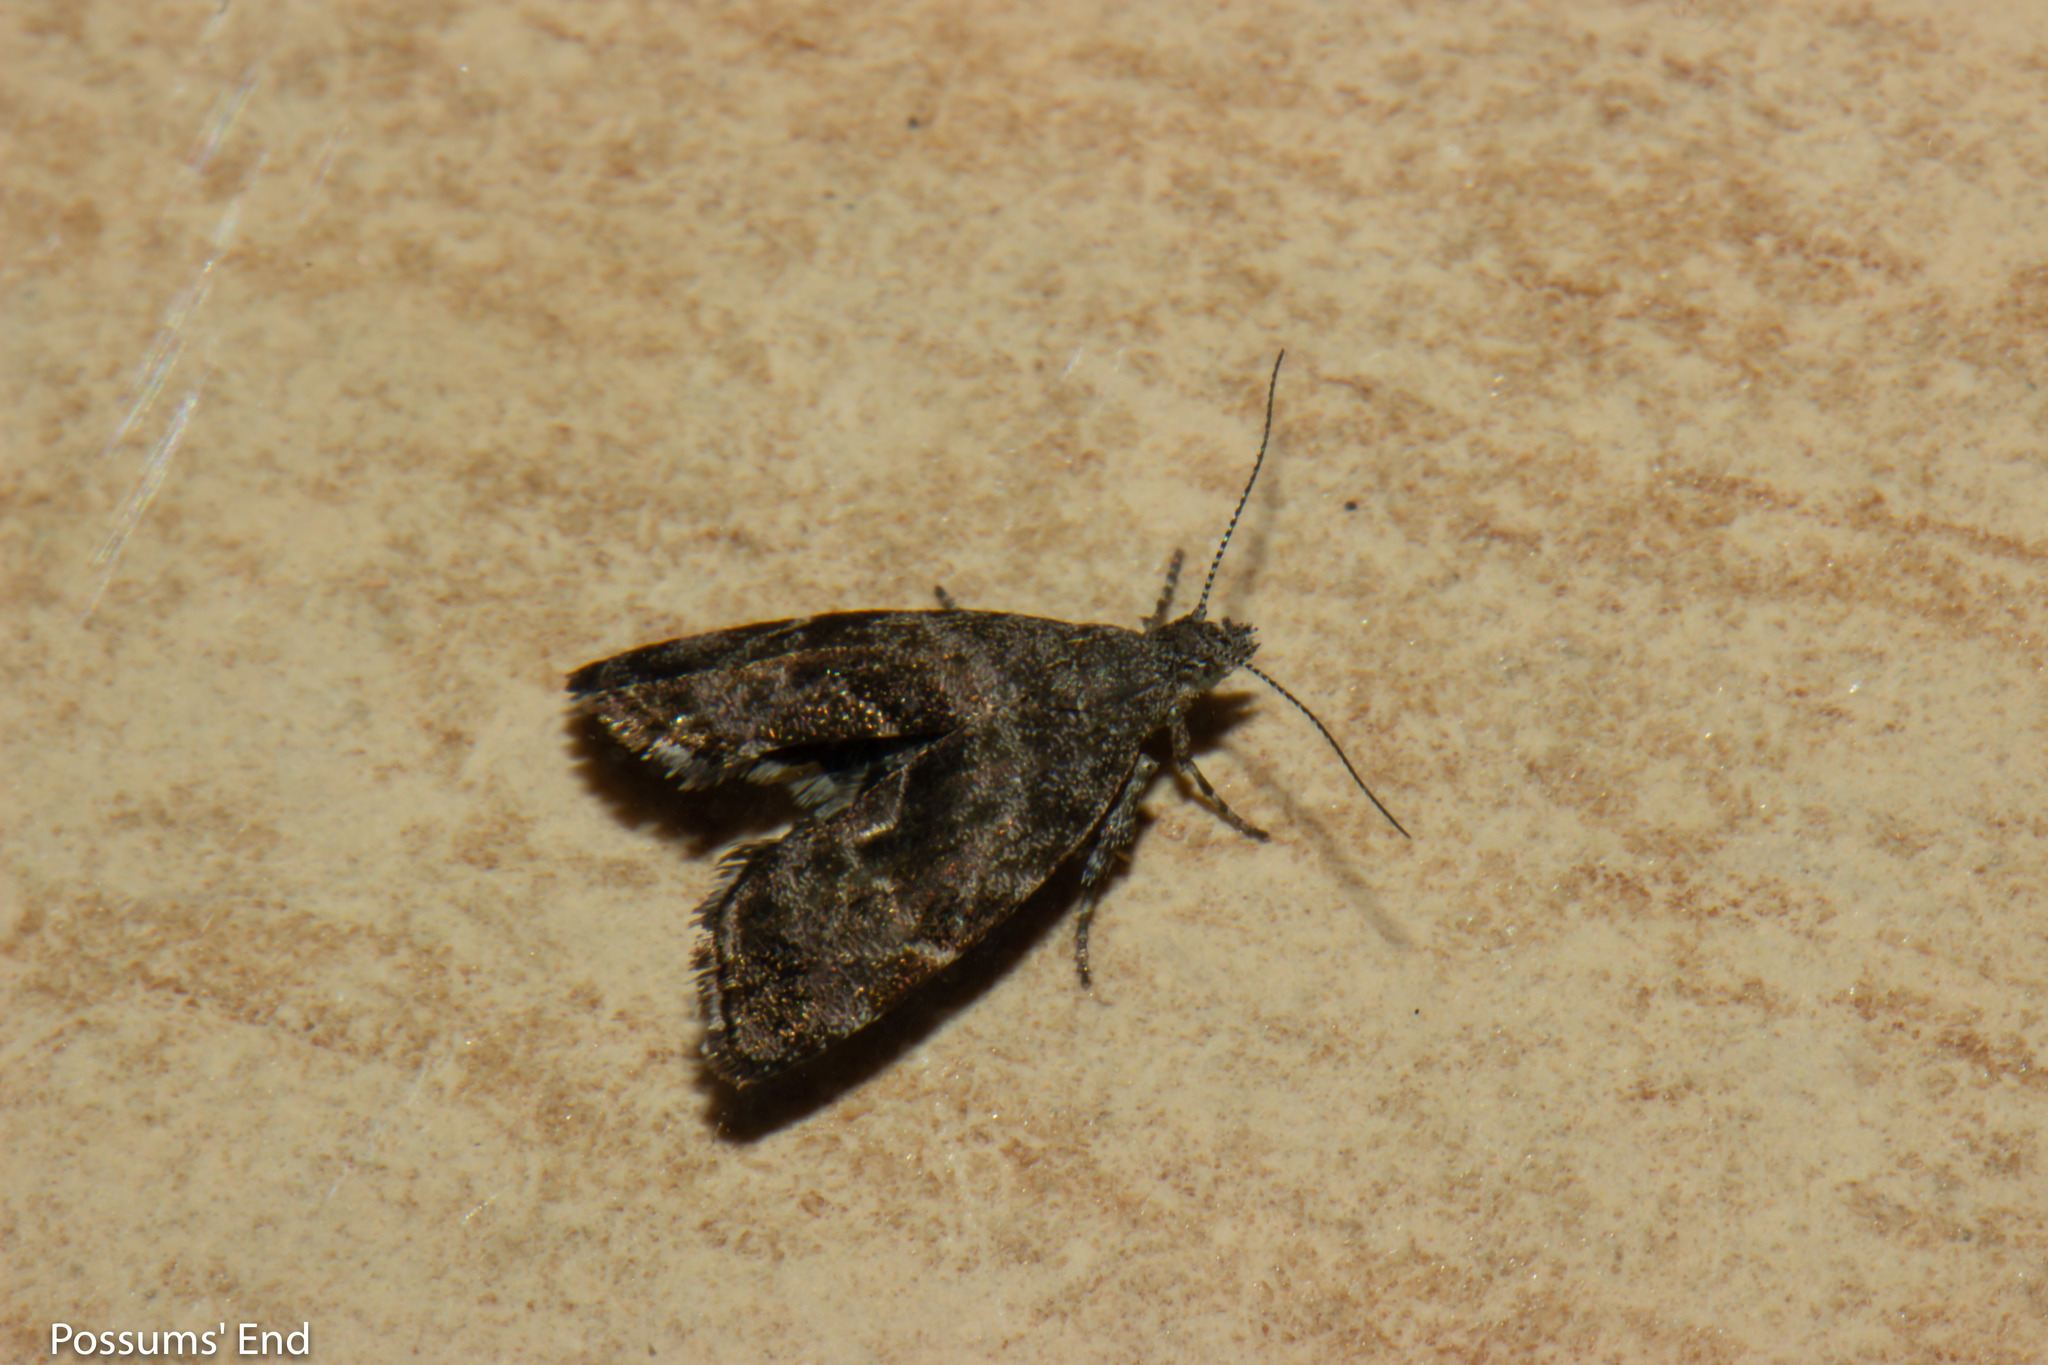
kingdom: Animalia
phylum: Arthropoda
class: Insecta
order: Lepidoptera
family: Choreutidae
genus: Asterivora
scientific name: Asterivora colpota
